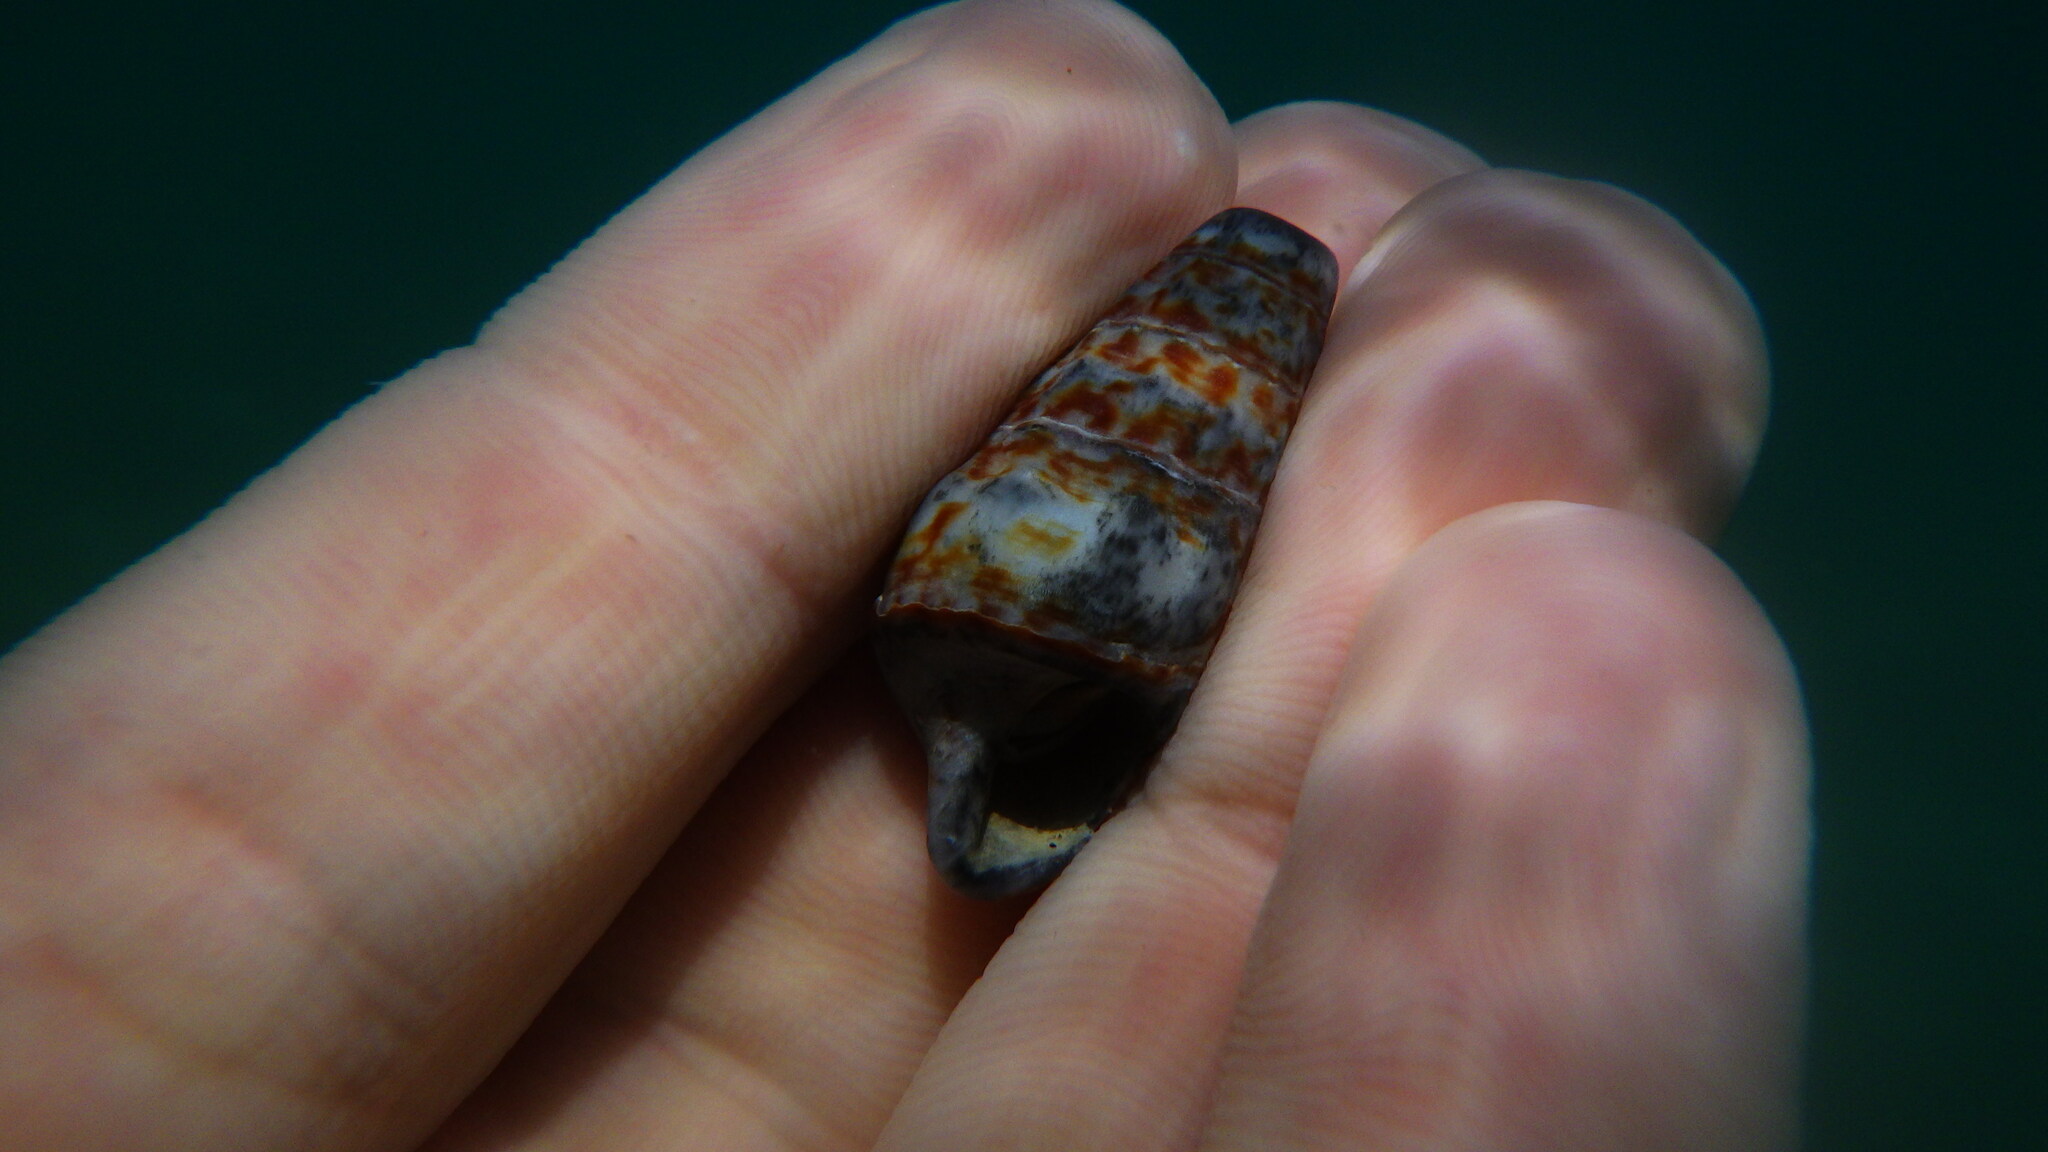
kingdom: Animalia
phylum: Mollusca
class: Gastropoda
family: Cerithiidae
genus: Cerithium
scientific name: Cerithium vulgatum
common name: European cerith
